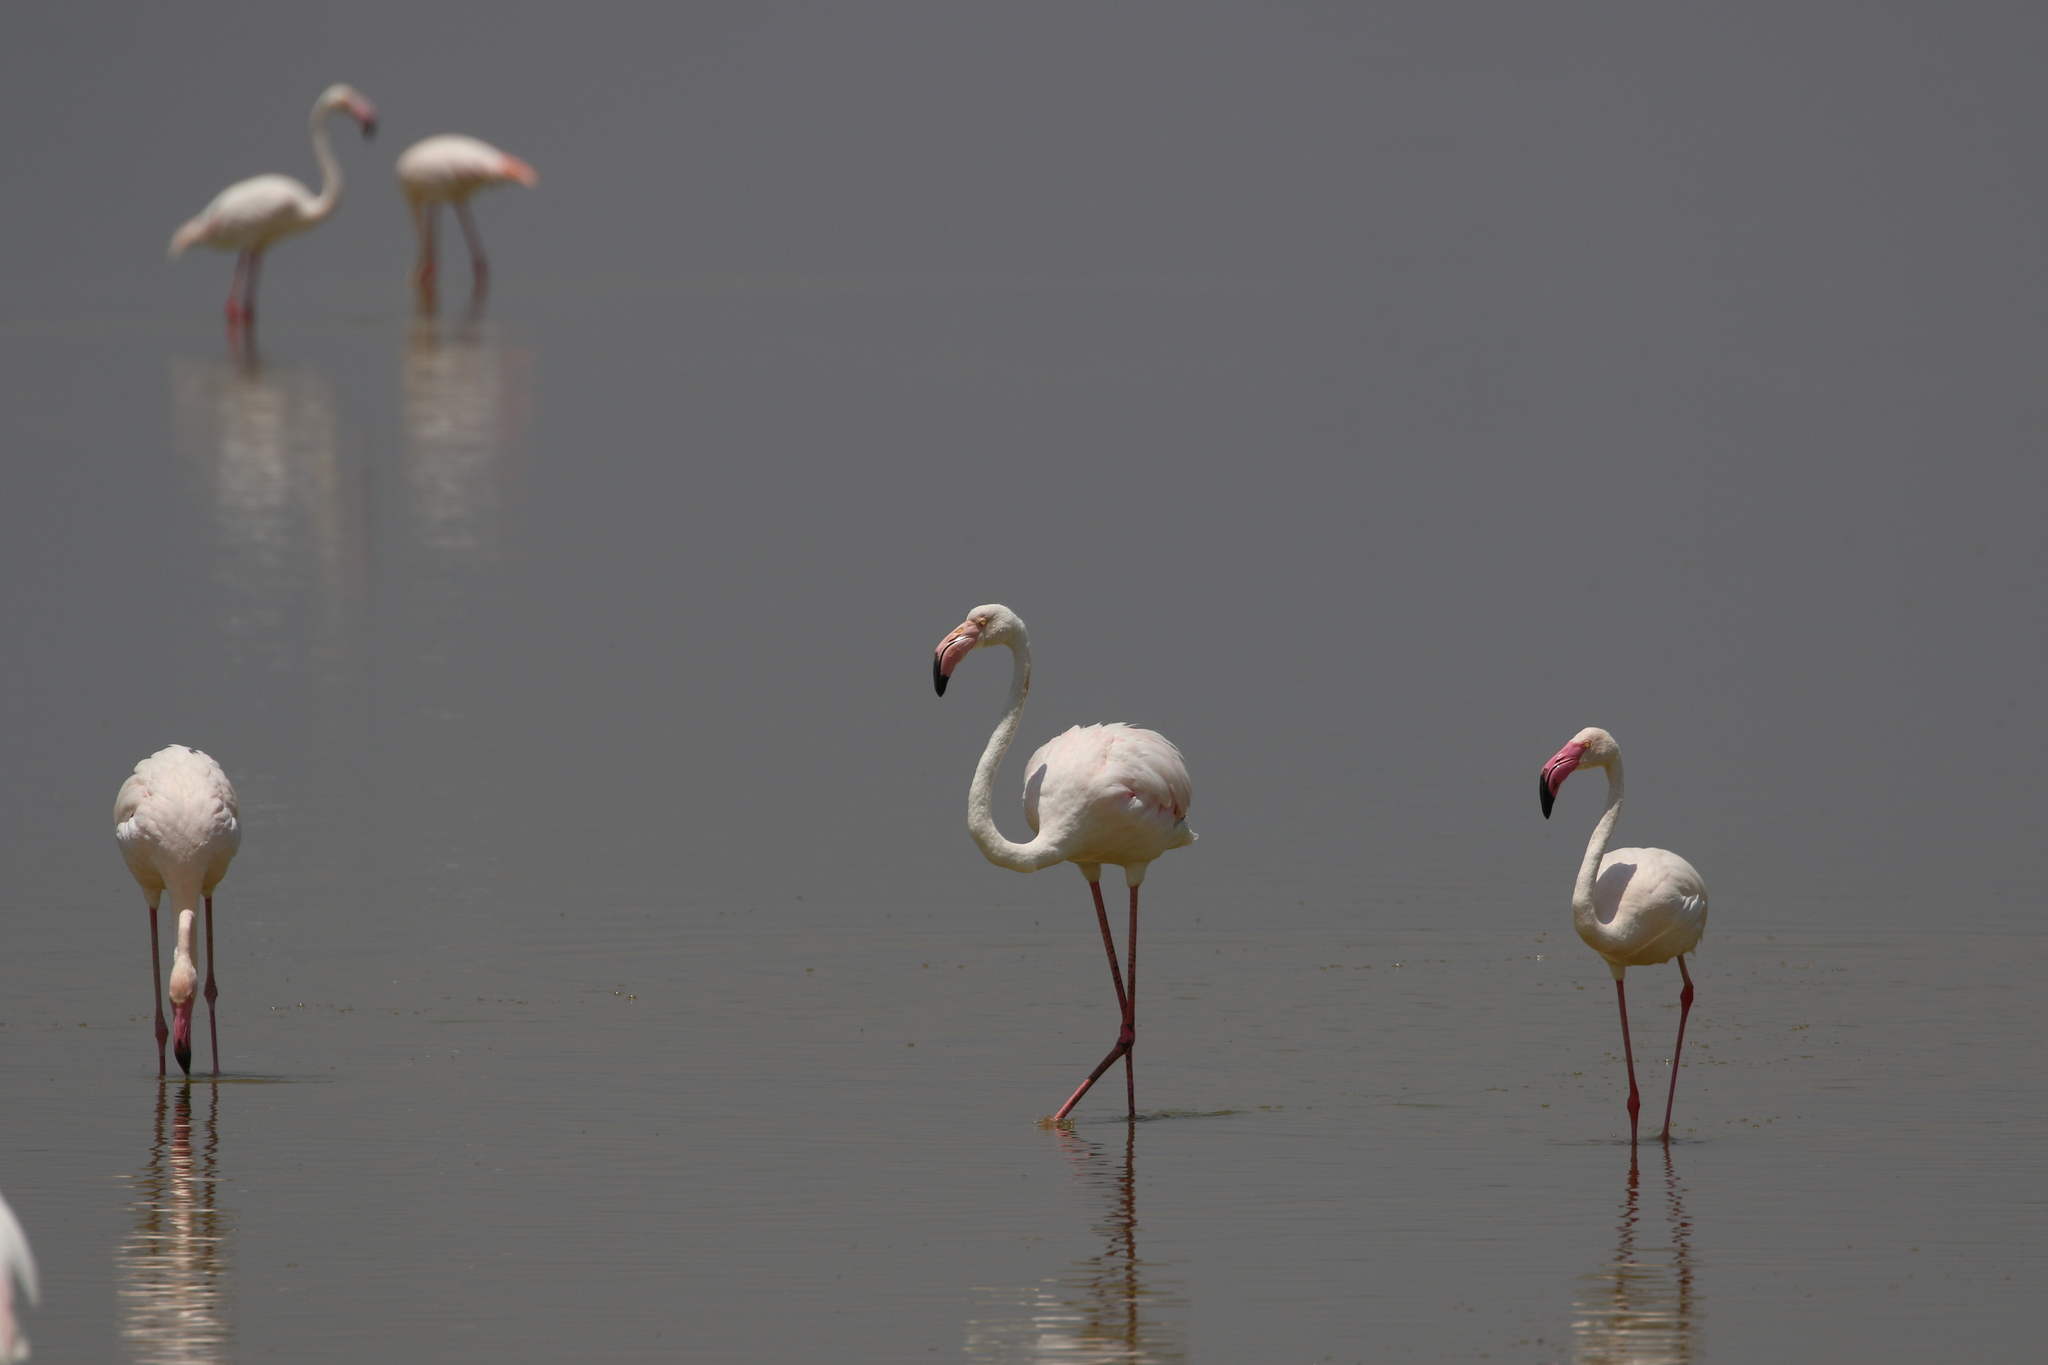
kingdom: Animalia
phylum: Chordata
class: Aves
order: Phoenicopteriformes
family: Phoenicopteridae
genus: Phoenicopterus
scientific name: Phoenicopterus roseus
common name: Greater flamingo
